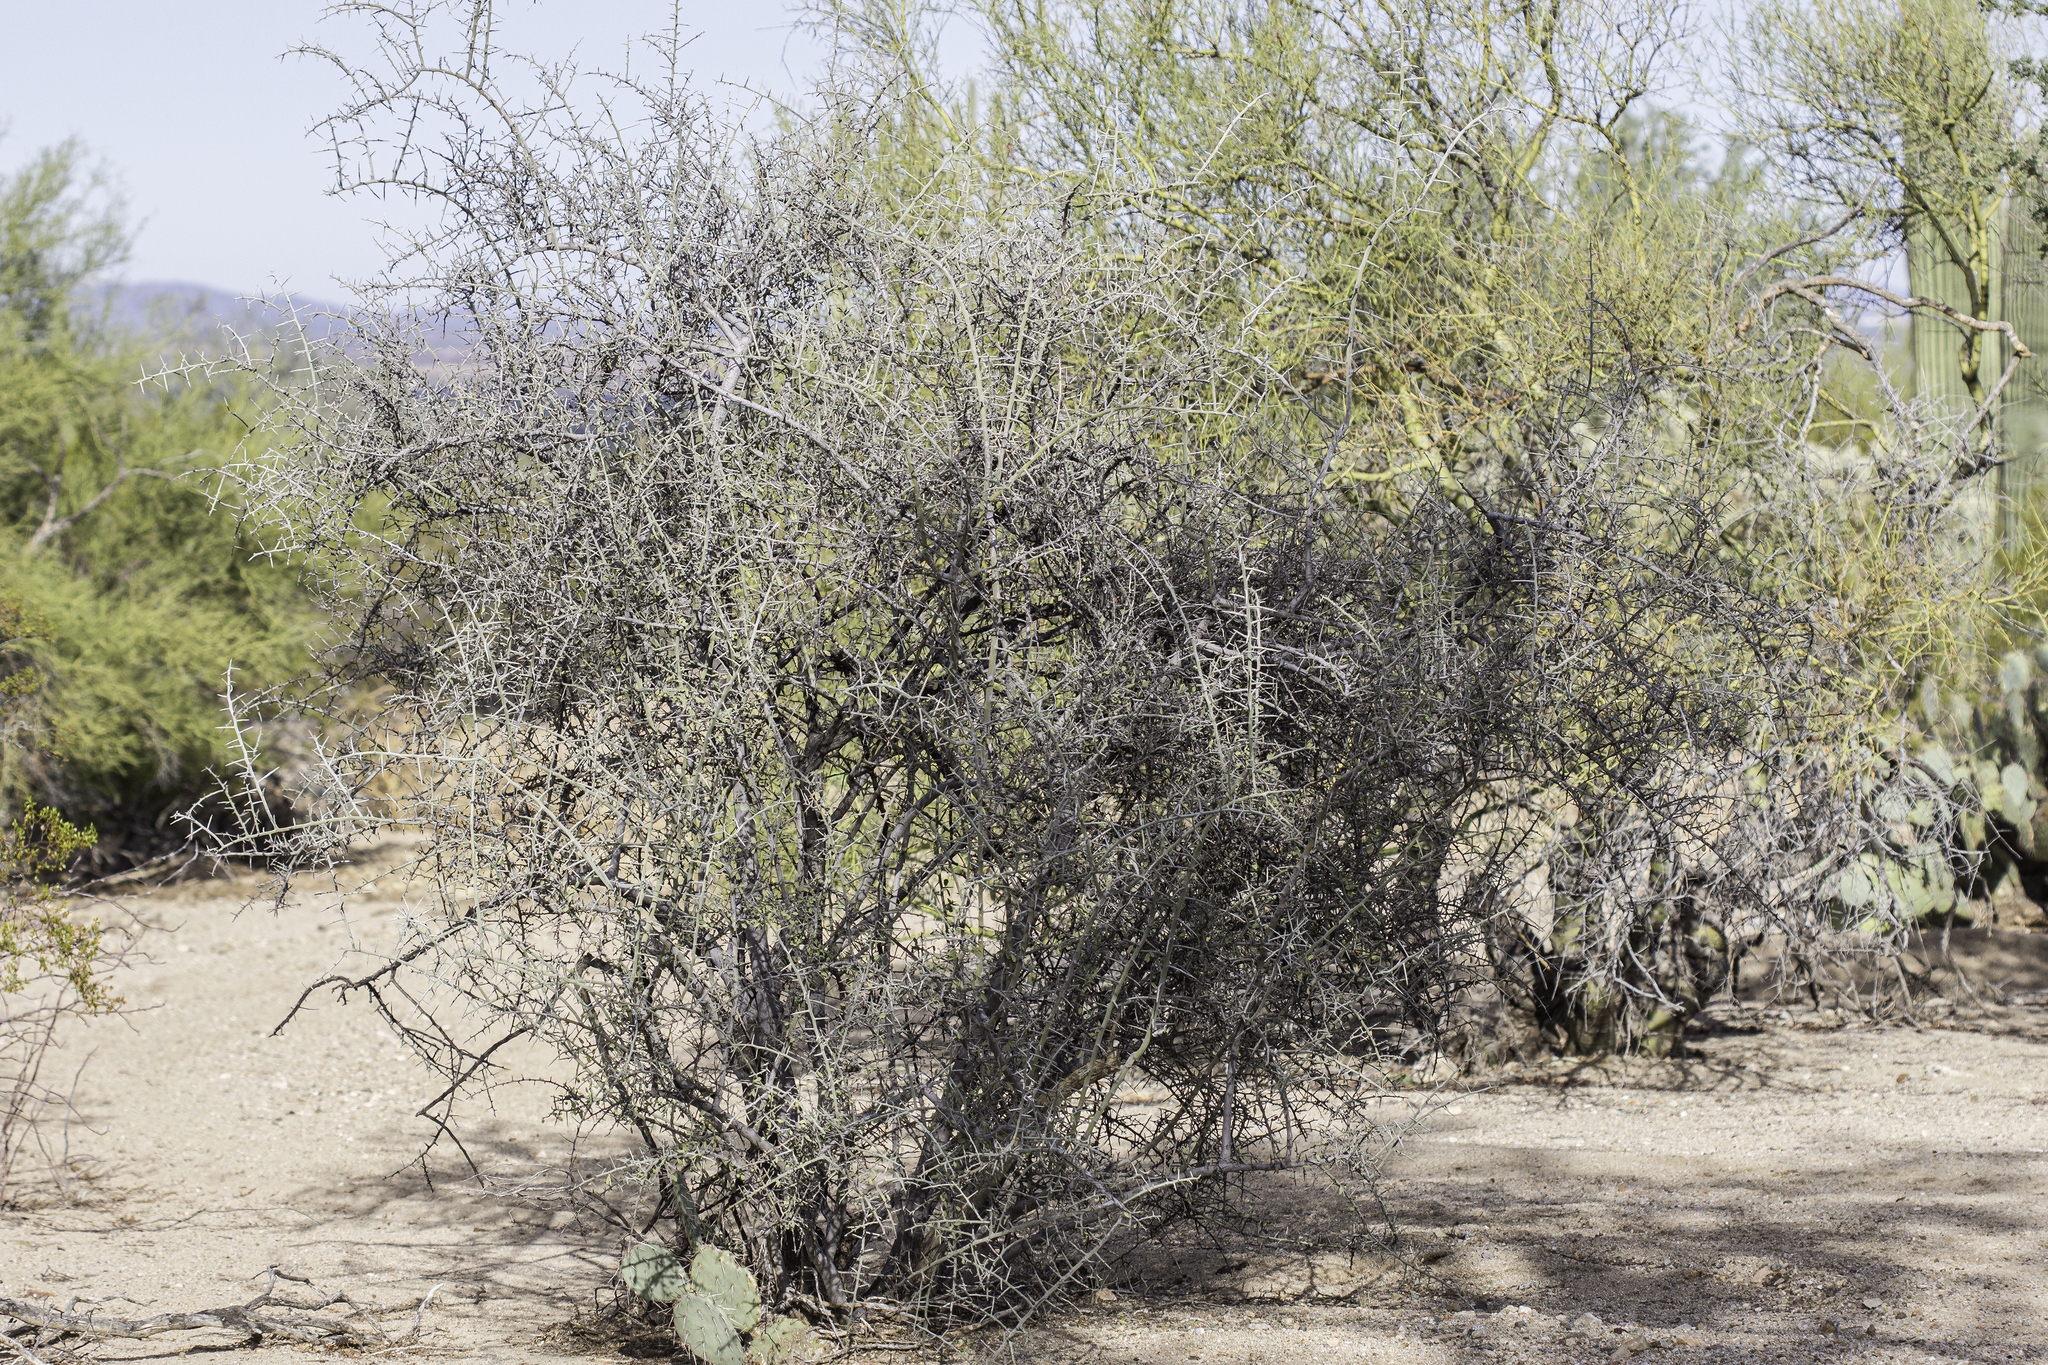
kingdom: Plantae
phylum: Tracheophyta
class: Magnoliopsida
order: Rosales
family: Rhamnaceae
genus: Sarcomphalus
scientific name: Sarcomphalus obtusifolius
